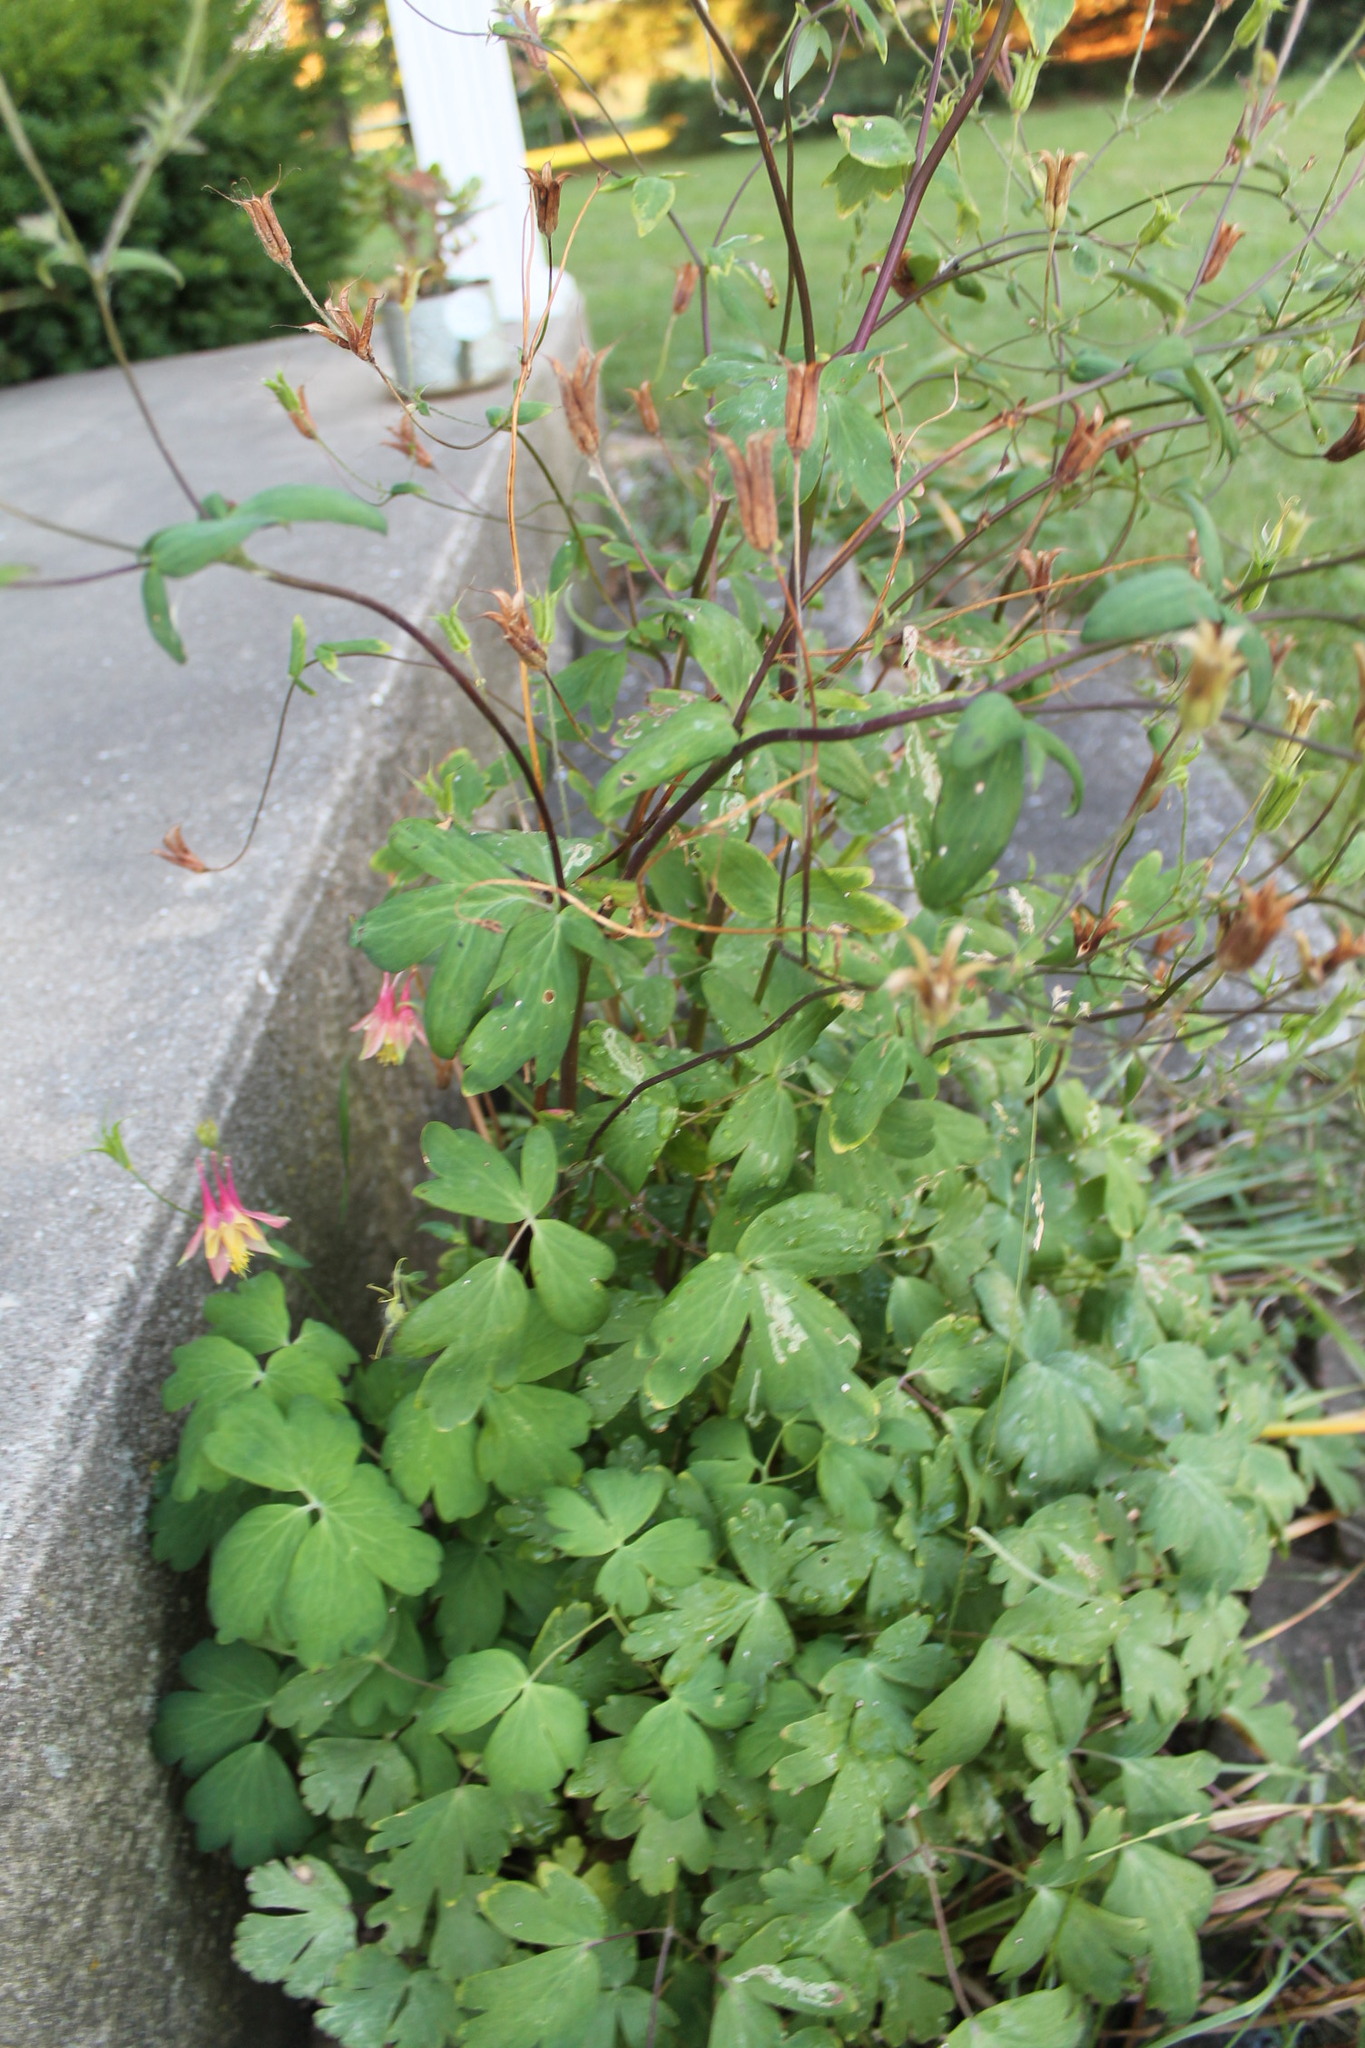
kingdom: Plantae
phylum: Tracheophyta
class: Magnoliopsida
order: Ranunculales
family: Ranunculaceae
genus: Aquilegia
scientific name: Aquilegia canadensis
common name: American columbine
